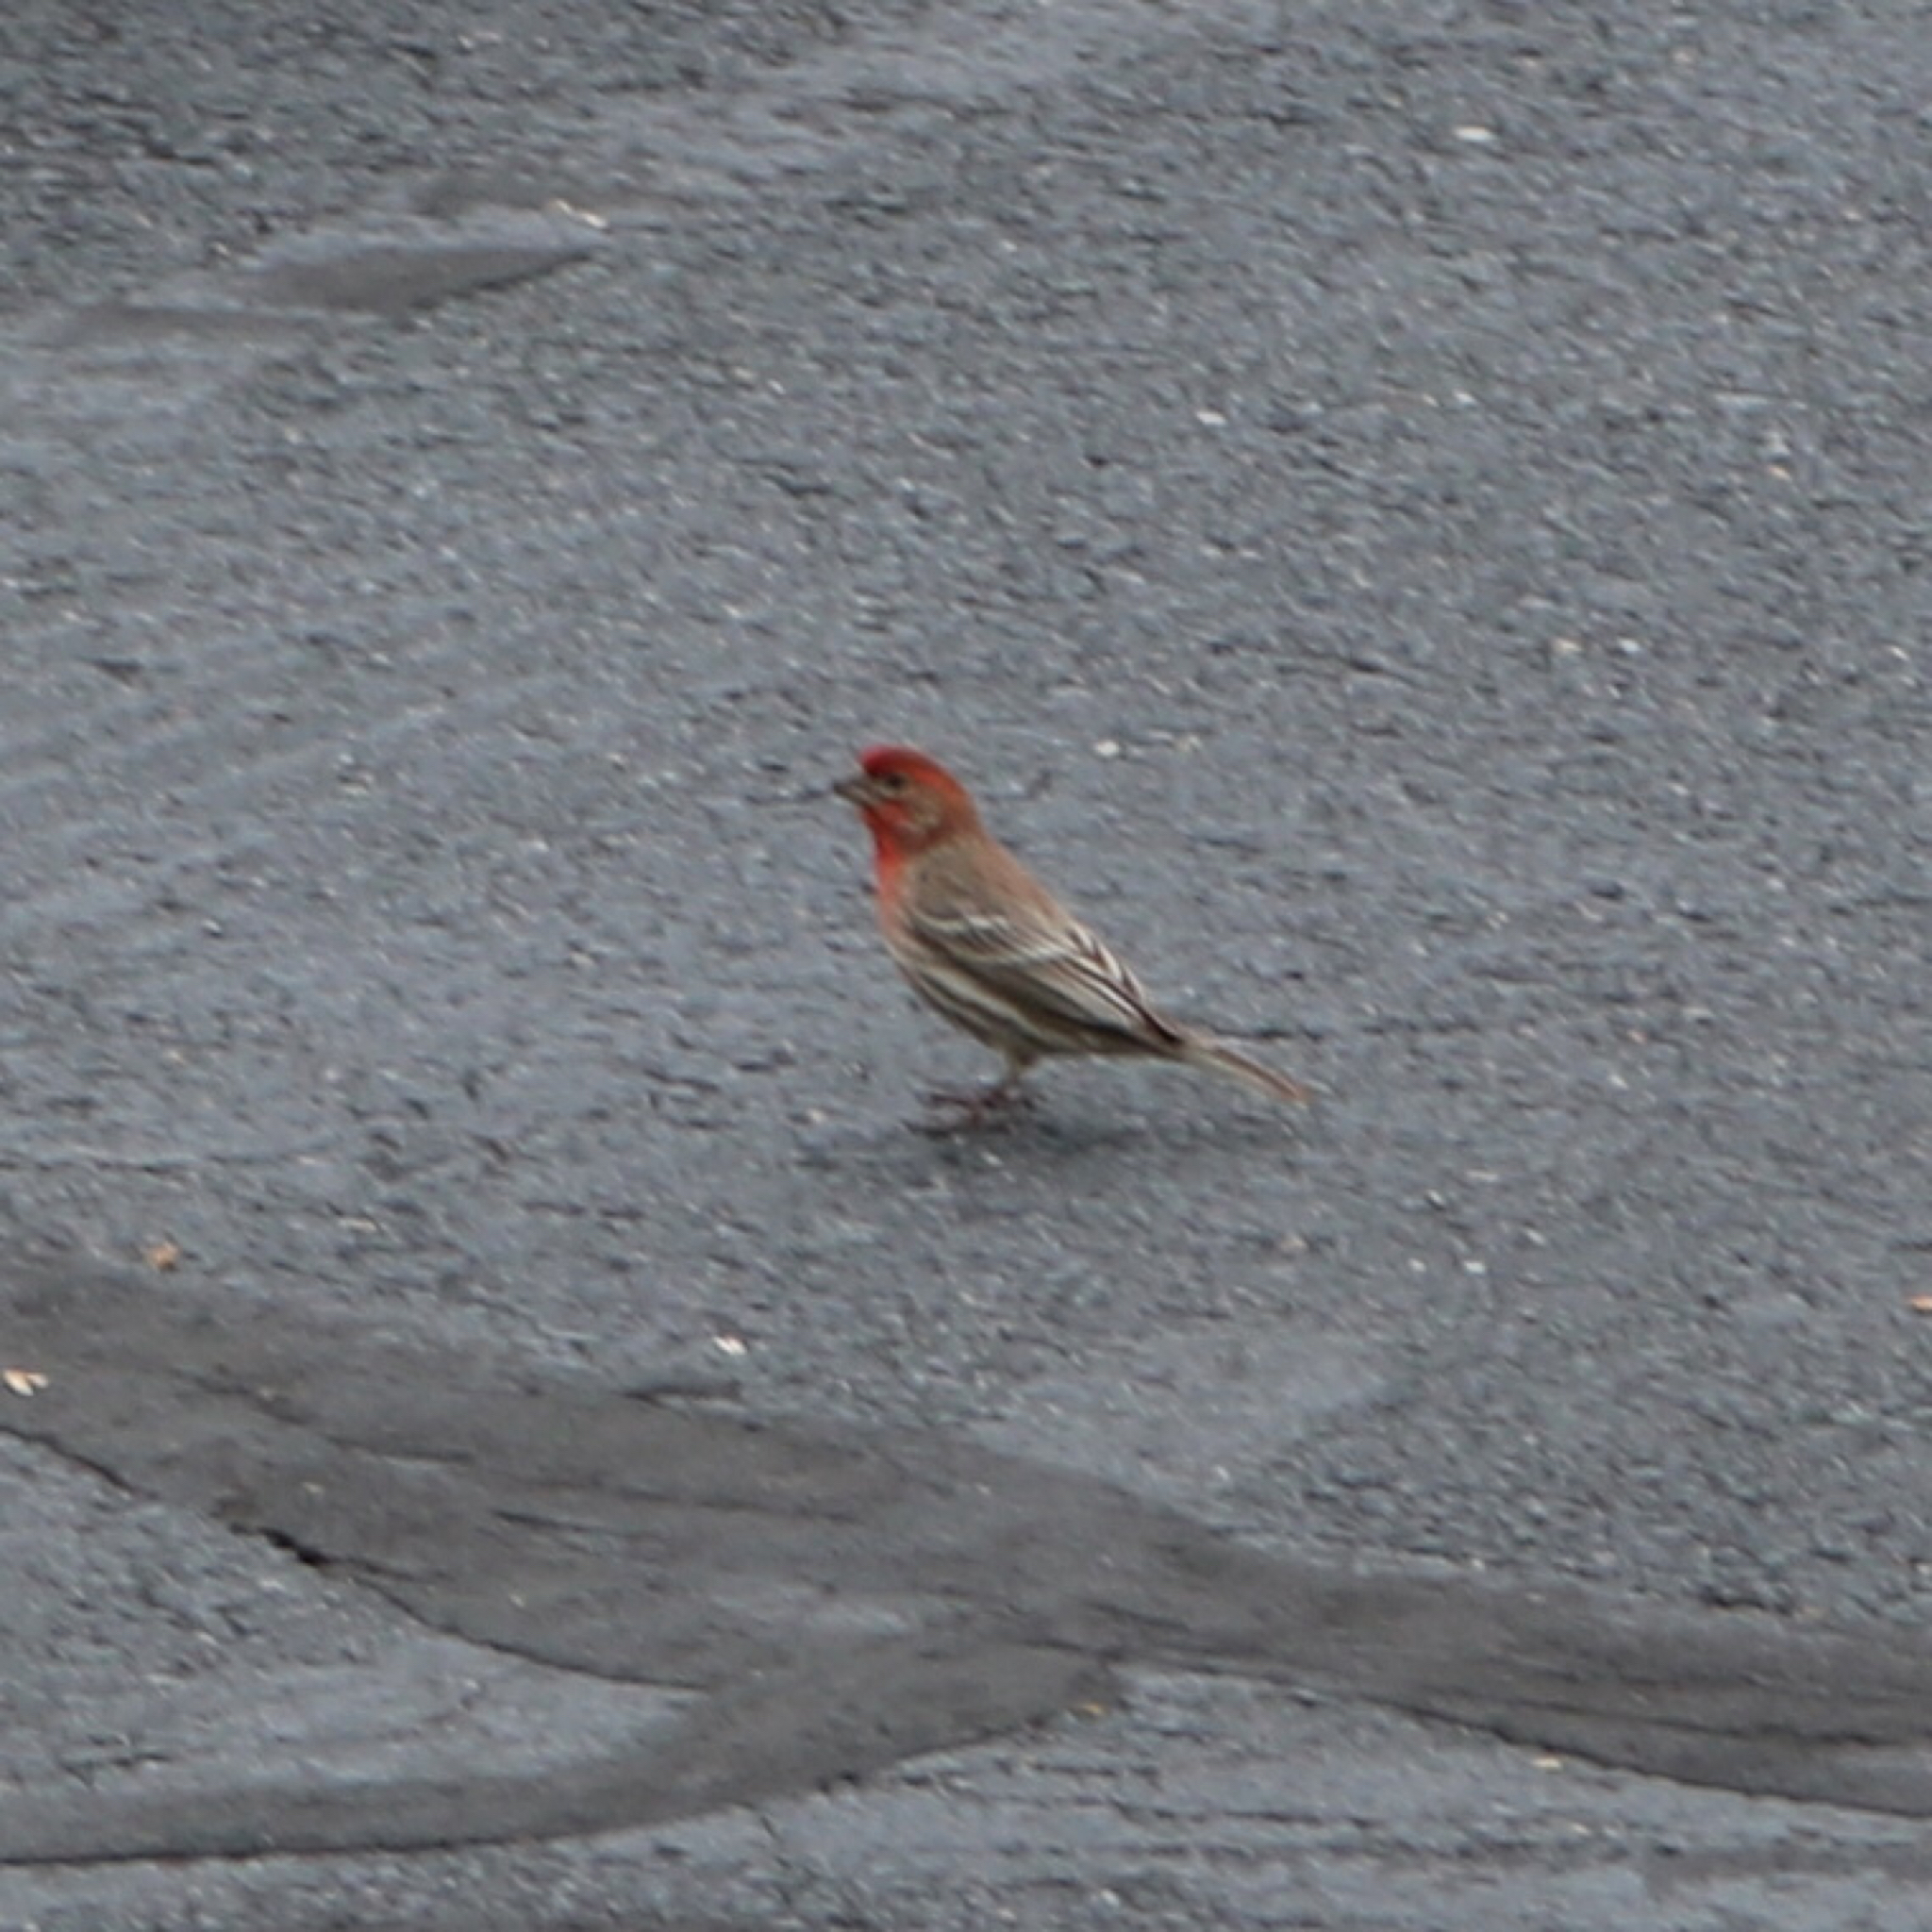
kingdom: Animalia
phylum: Chordata
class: Aves
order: Passeriformes
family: Fringillidae
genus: Haemorhous
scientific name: Haemorhous mexicanus
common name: House finch
